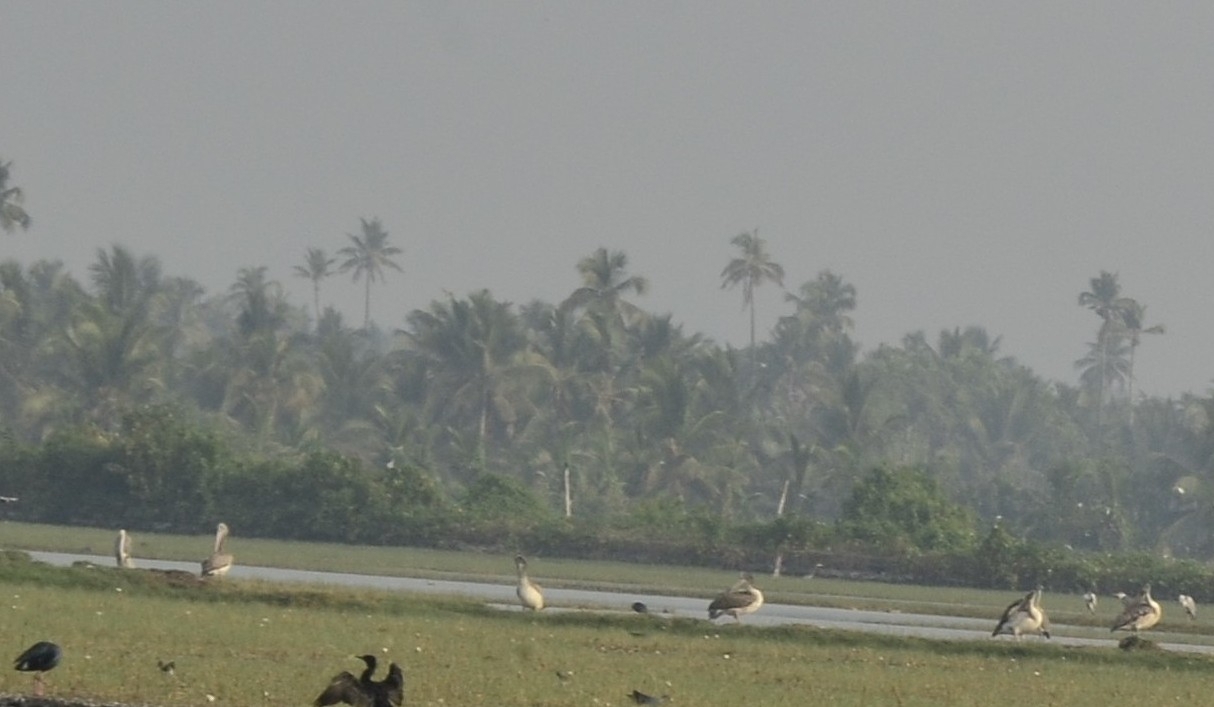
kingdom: Animalia
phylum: Chordata
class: Aves
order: Pelecaniformes
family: Pelecanidae
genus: Pelecanus
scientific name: Pelecanus philippensis
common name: Spot-billed pelican
